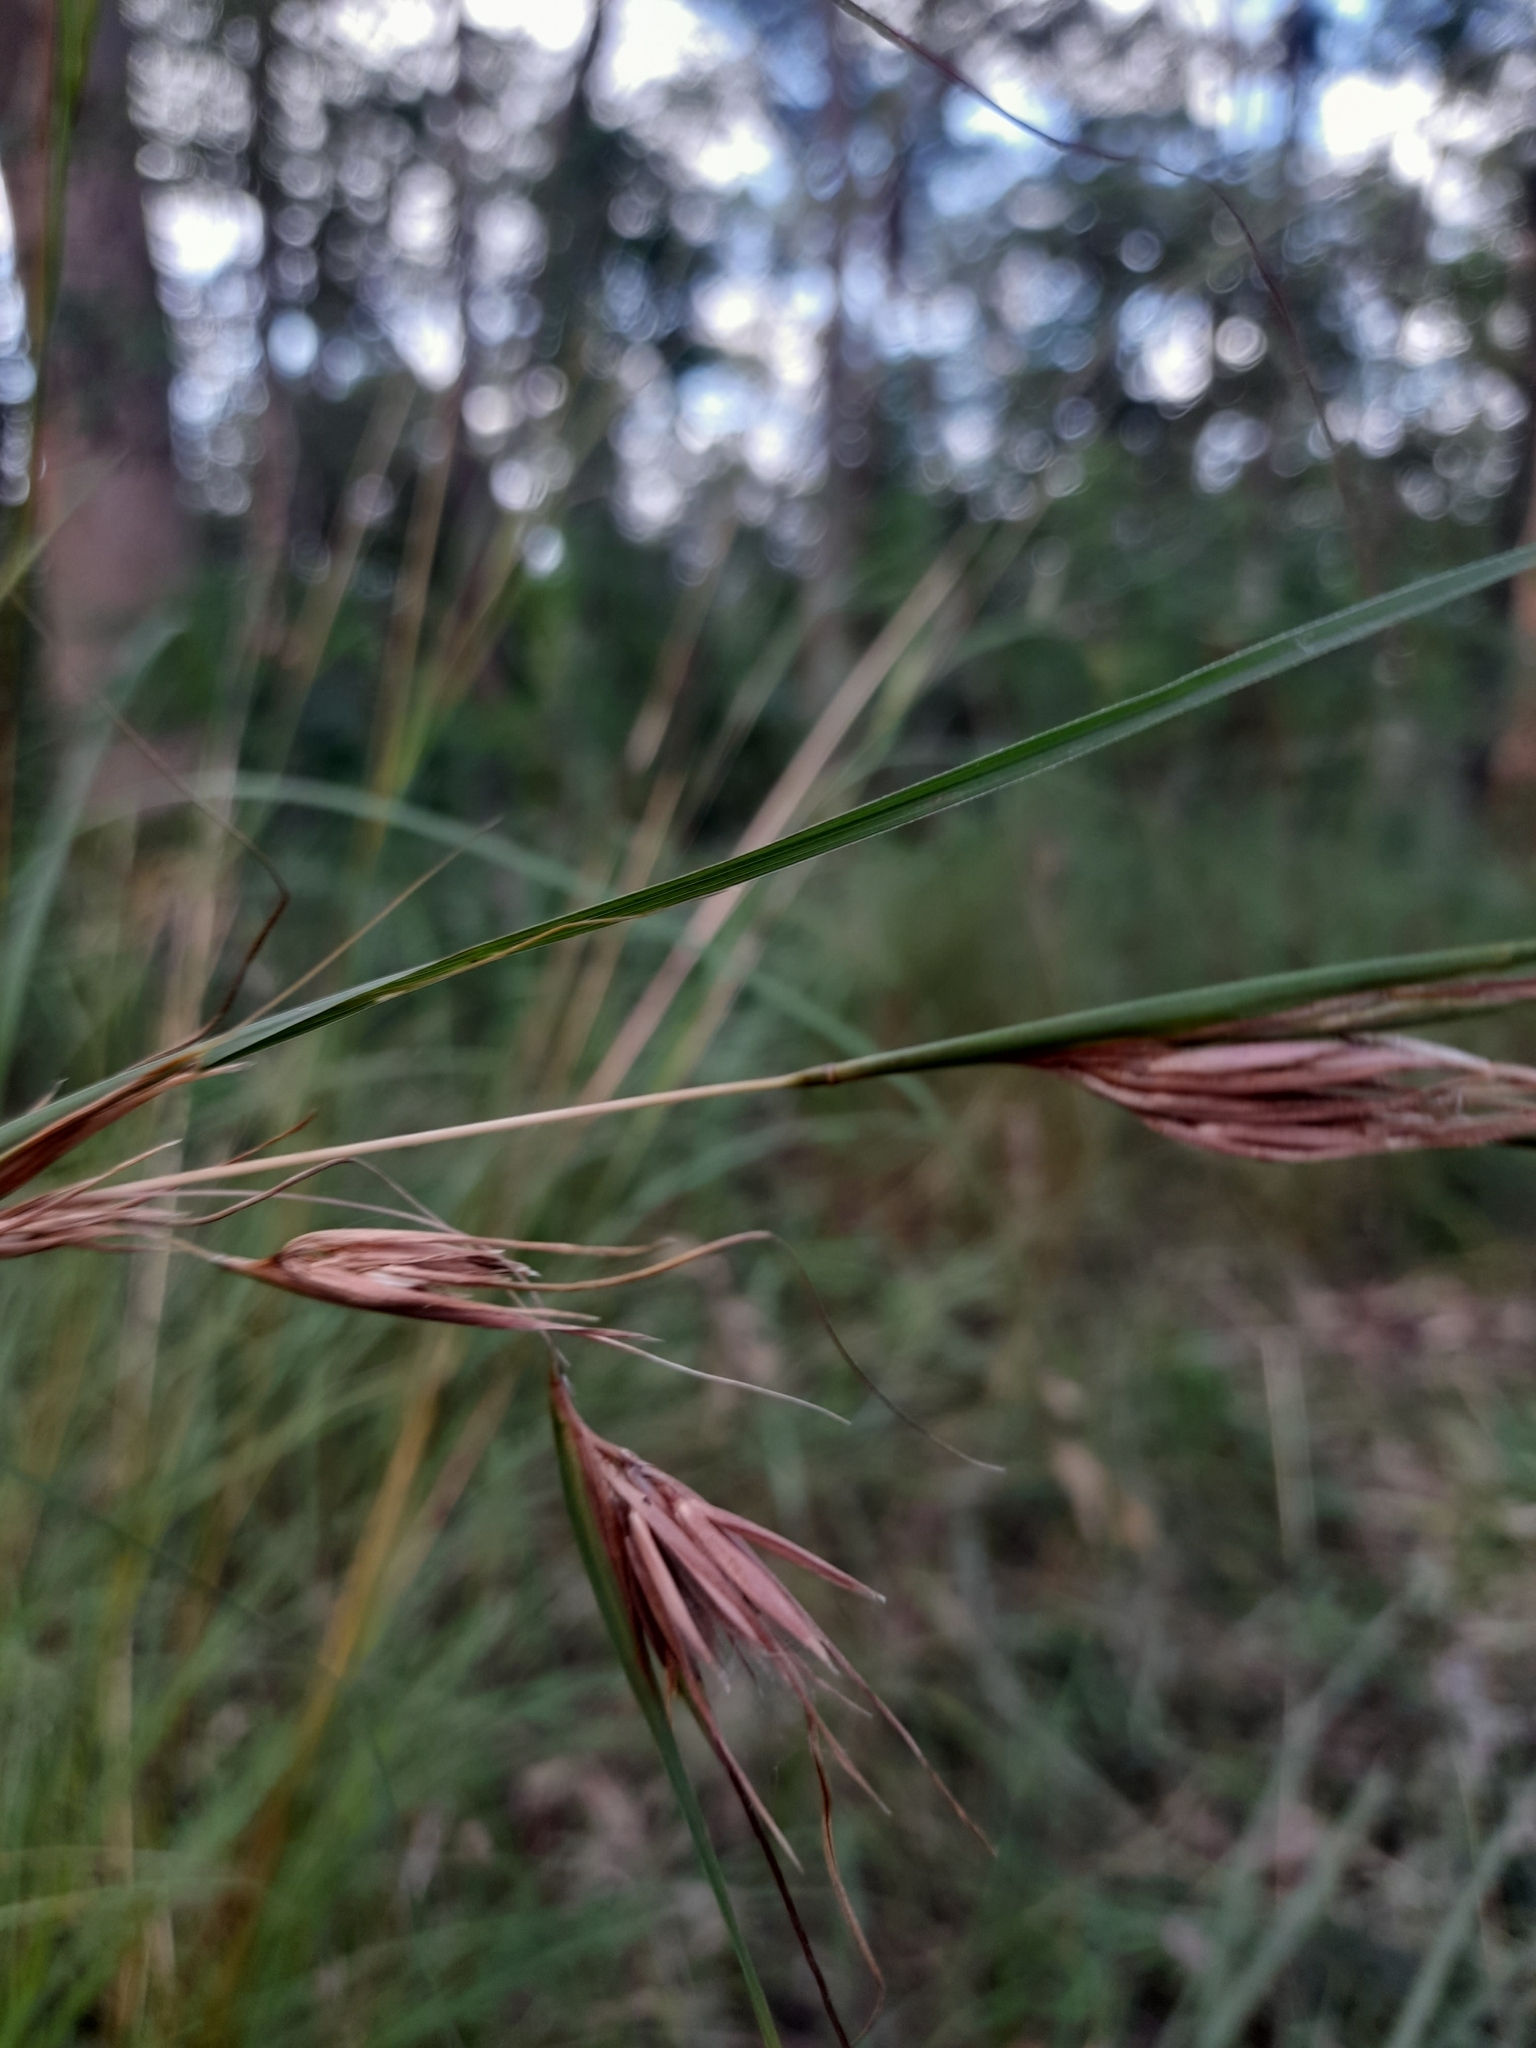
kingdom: Plantae
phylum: Tracheophyta
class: Liliopsida
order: Poales
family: Poaceae
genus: Themeda
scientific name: Themeda triandra
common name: Kangaroo grass
